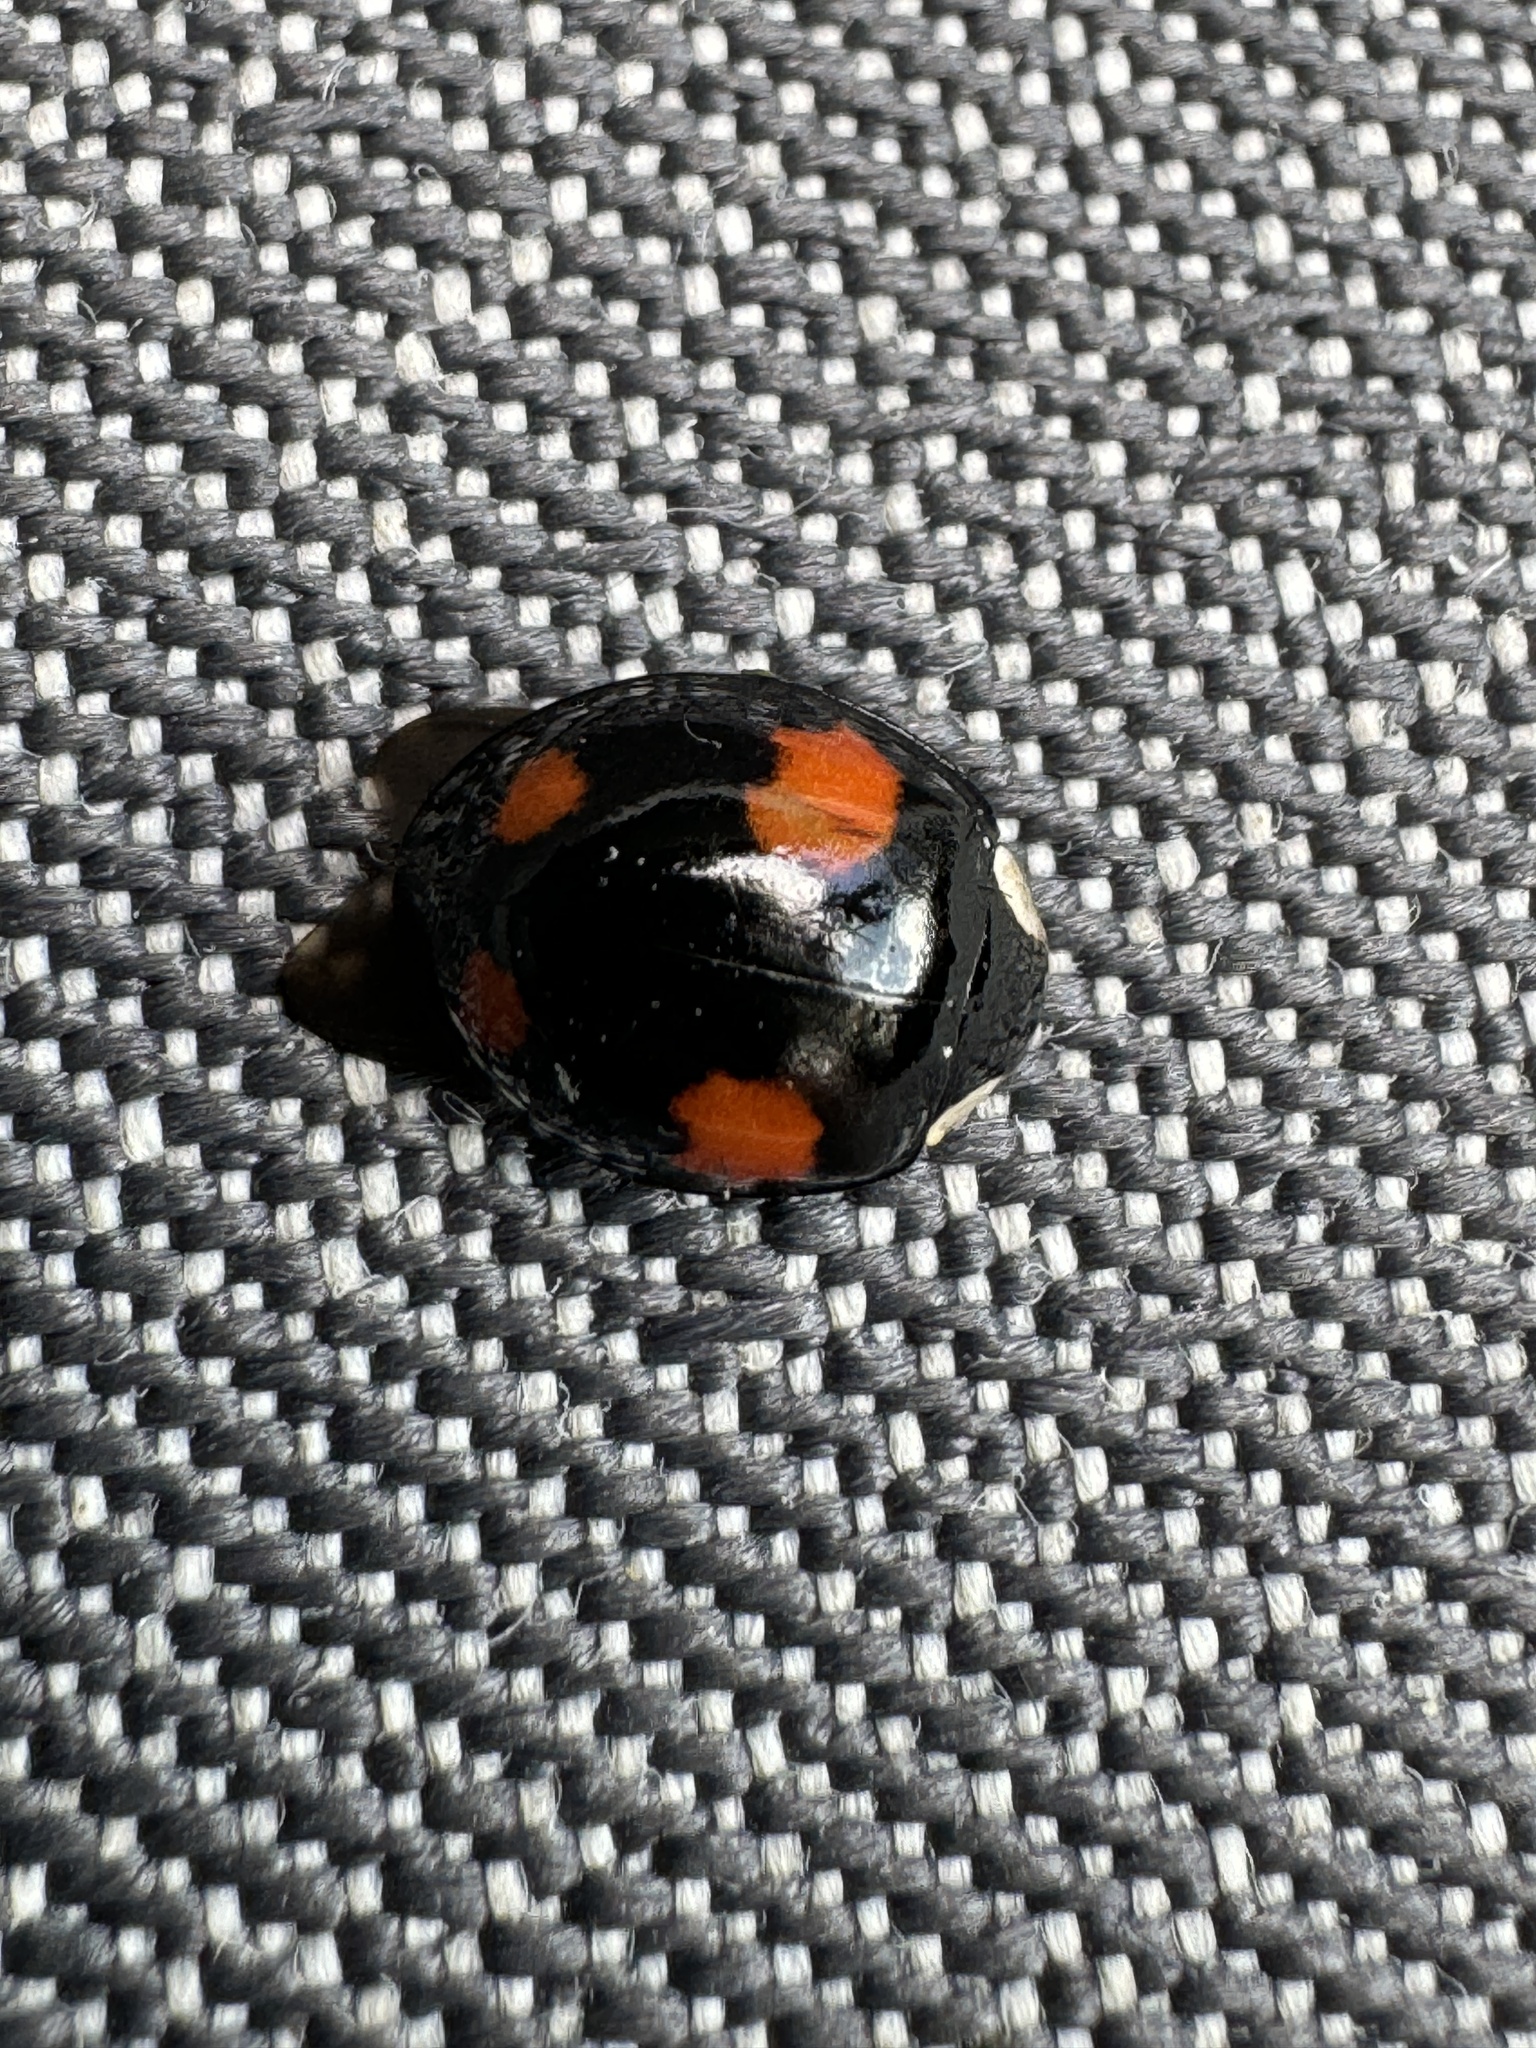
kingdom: Animalia
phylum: Arthropoda
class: Insecta
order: Coleoptera
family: Coccinellidae
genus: Harmonia
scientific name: Harmonia axyridis
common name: Harlequin ladybird
